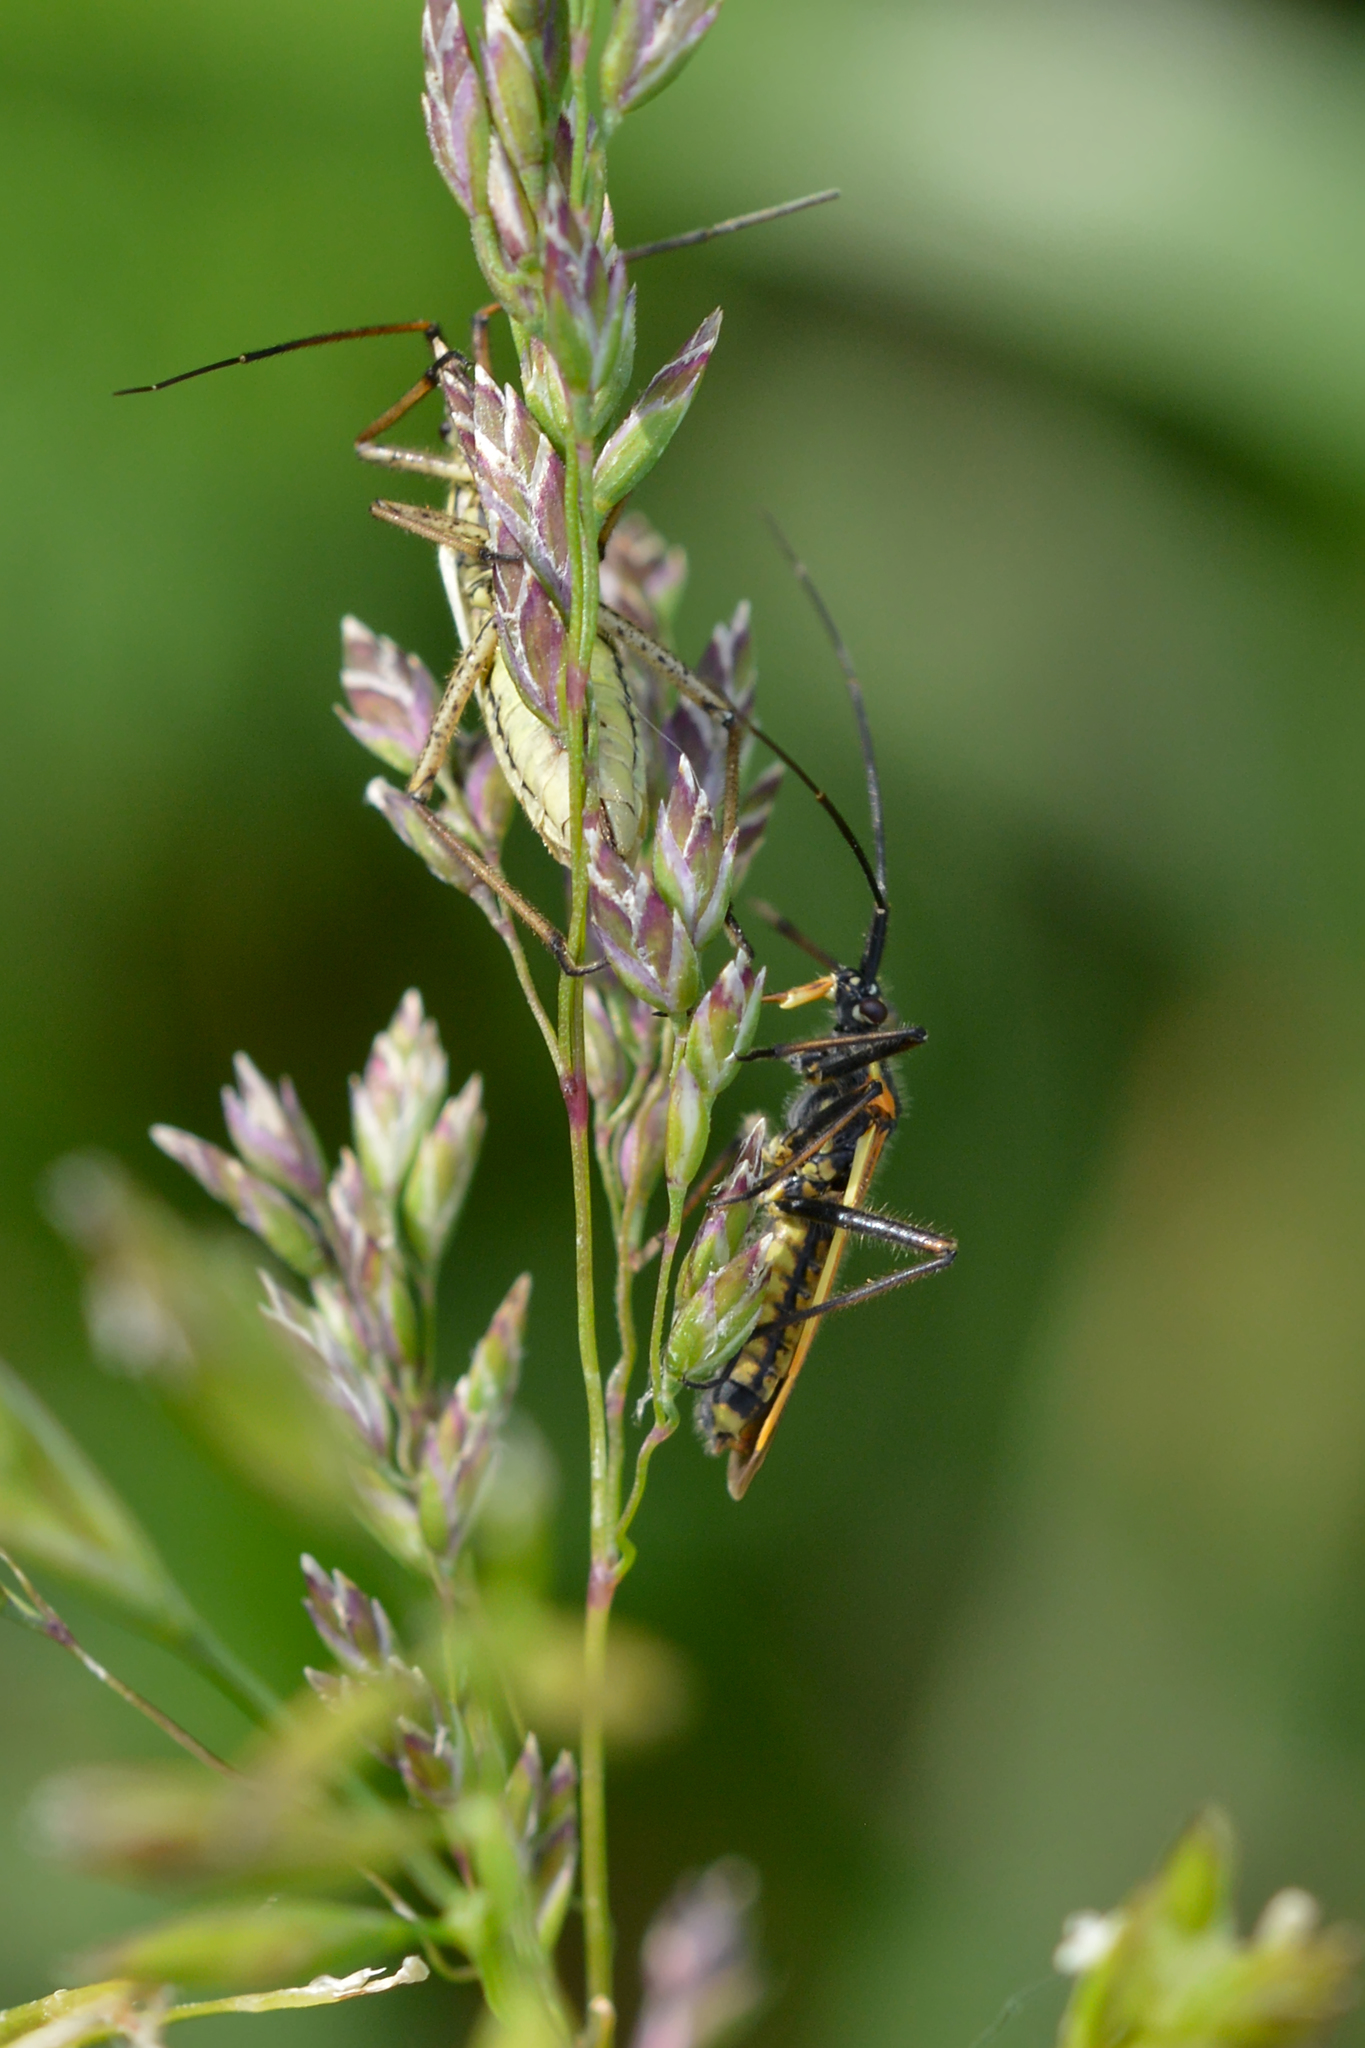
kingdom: Animalia
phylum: Arthropoda
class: Insecta
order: Hemiptera
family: Miridae
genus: Stenotus
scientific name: Stenotus binotatus
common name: Plant bug
